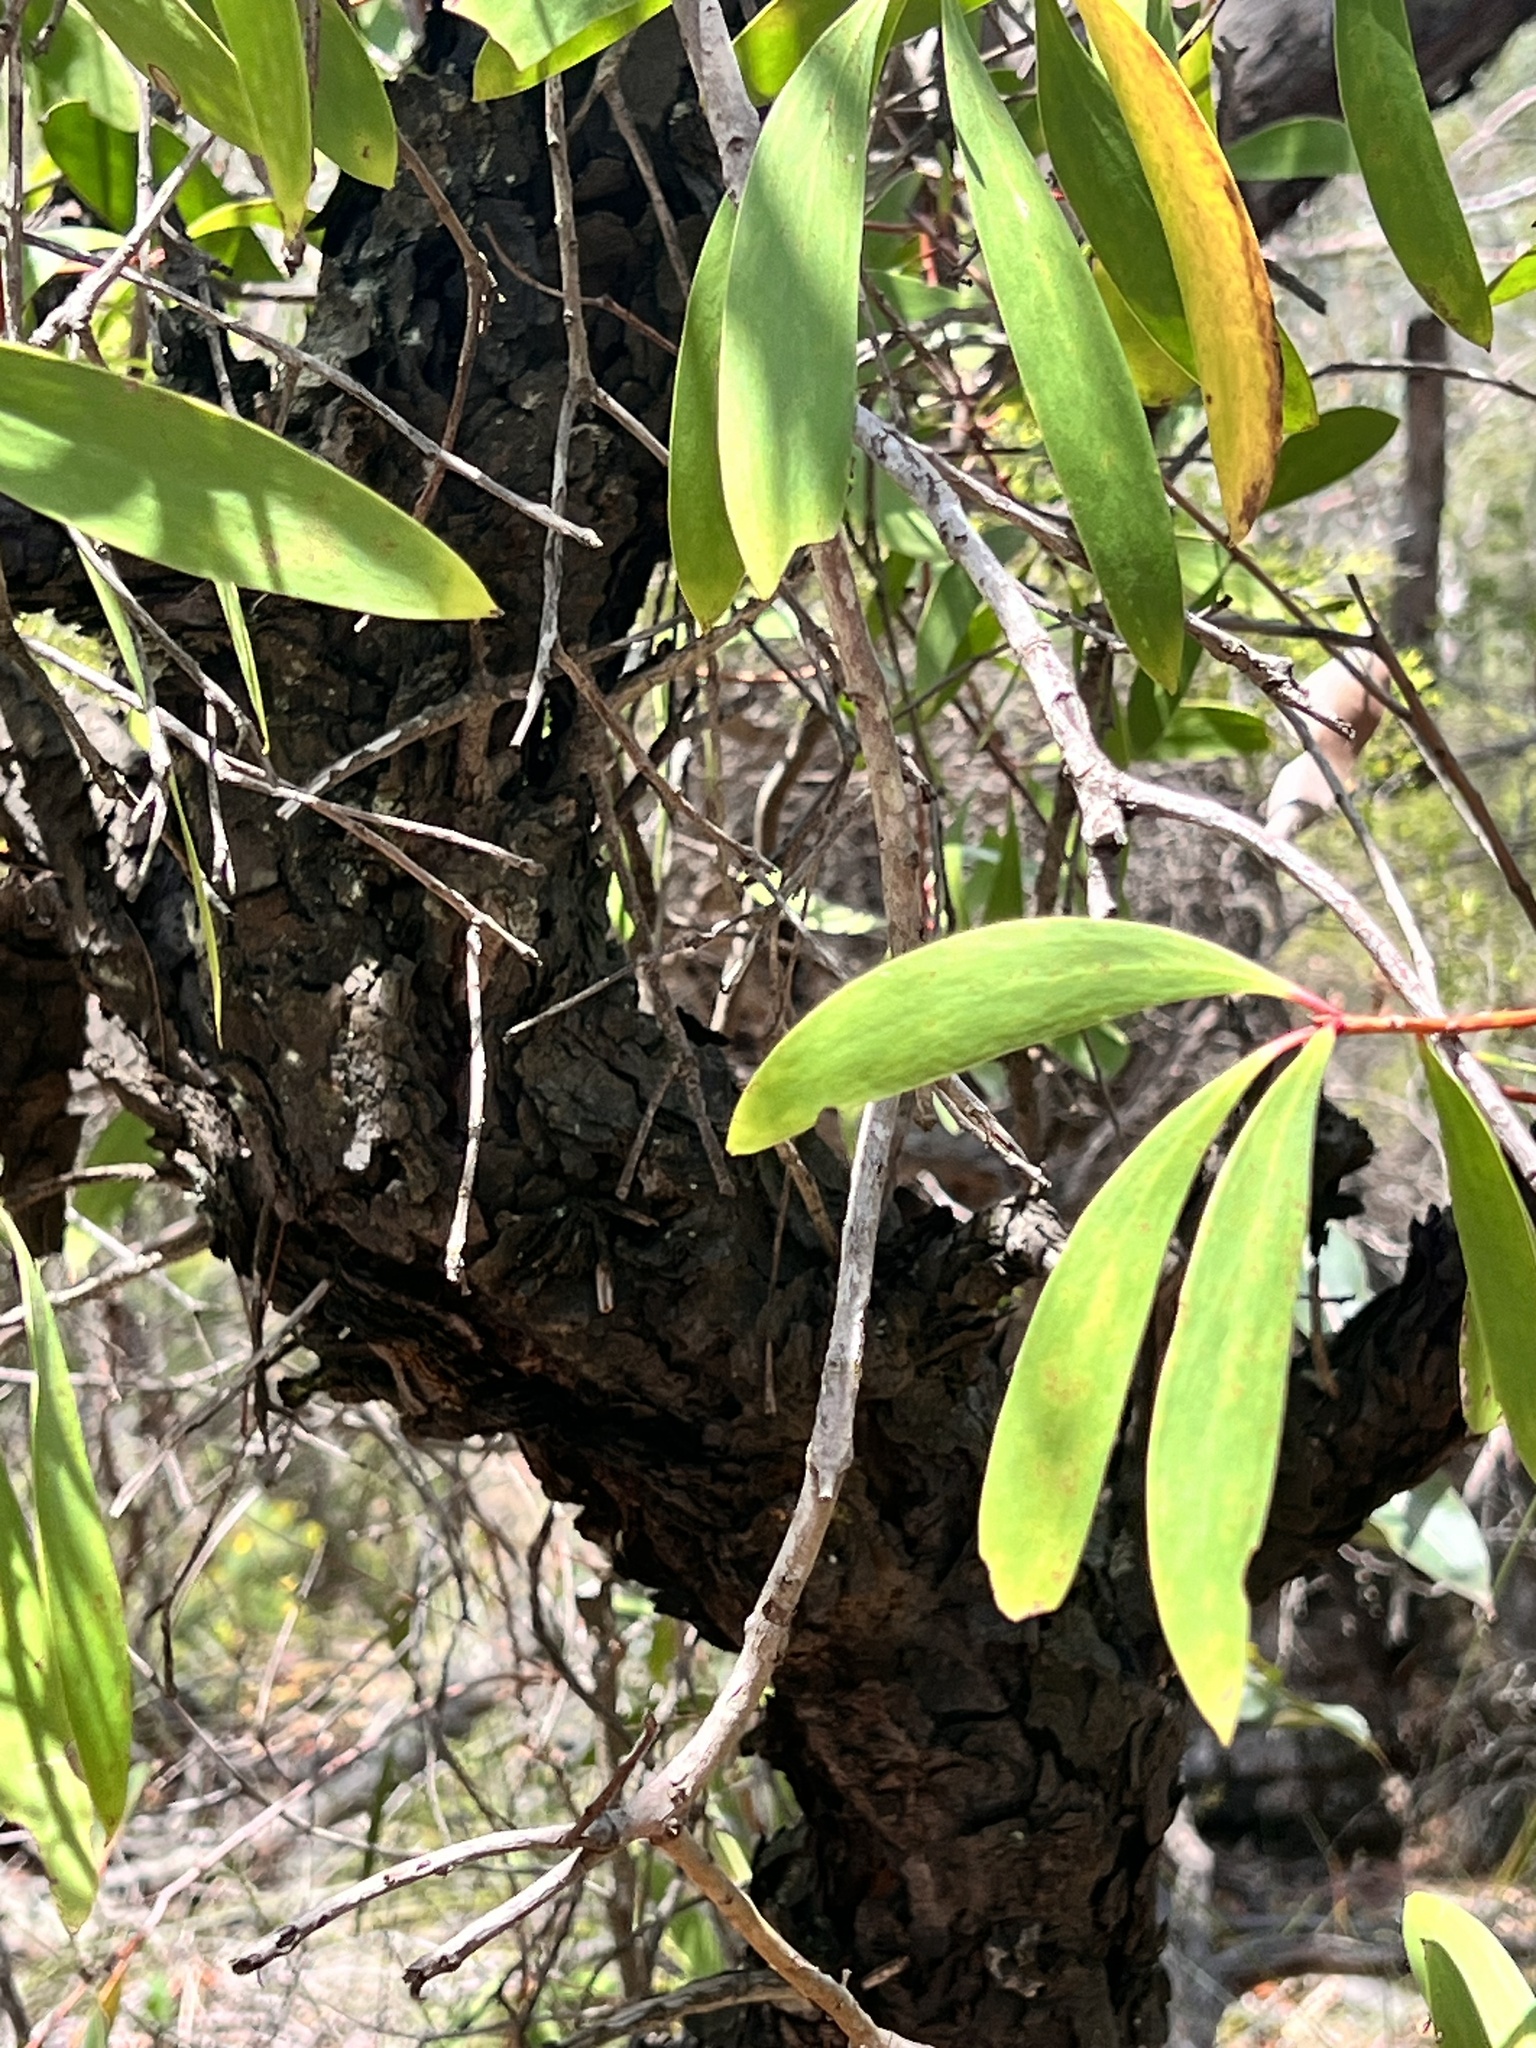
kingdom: Plantae
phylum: Tracheophyta
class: Magnoliopsida
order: Proteales
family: Proteaceae
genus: Persoonia
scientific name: Persoonia levis
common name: Smooth geebung
